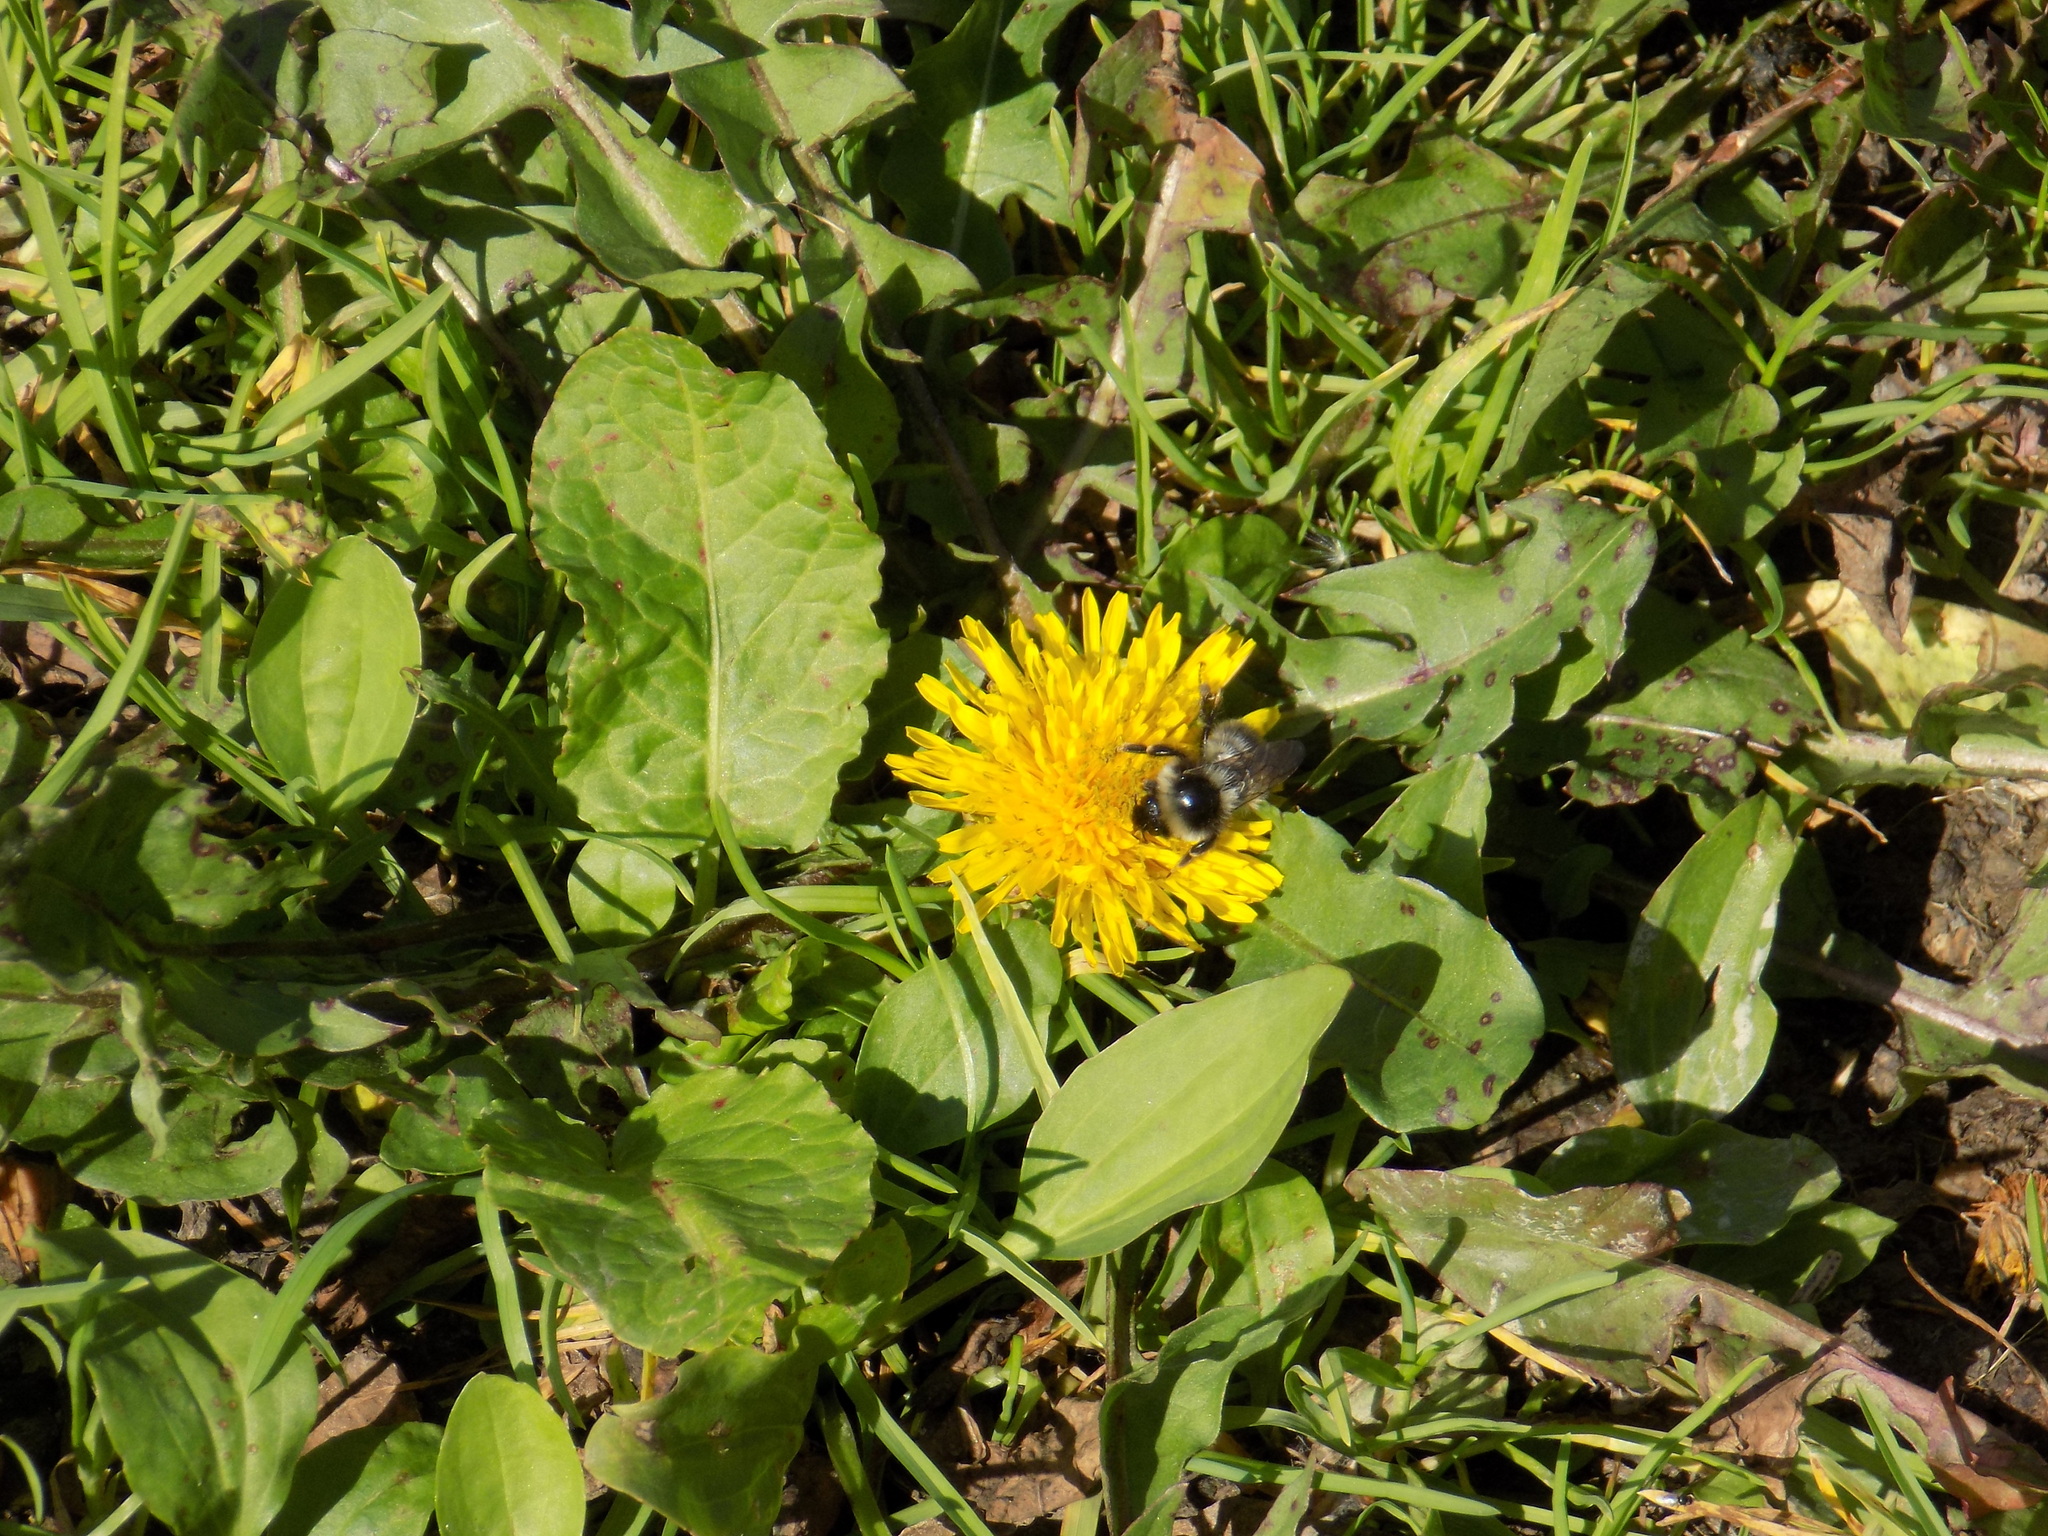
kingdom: Animalia
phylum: Arthropoda
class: Insecta
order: Hymenoptera
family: Apidae
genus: Bombus
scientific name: Bombus
